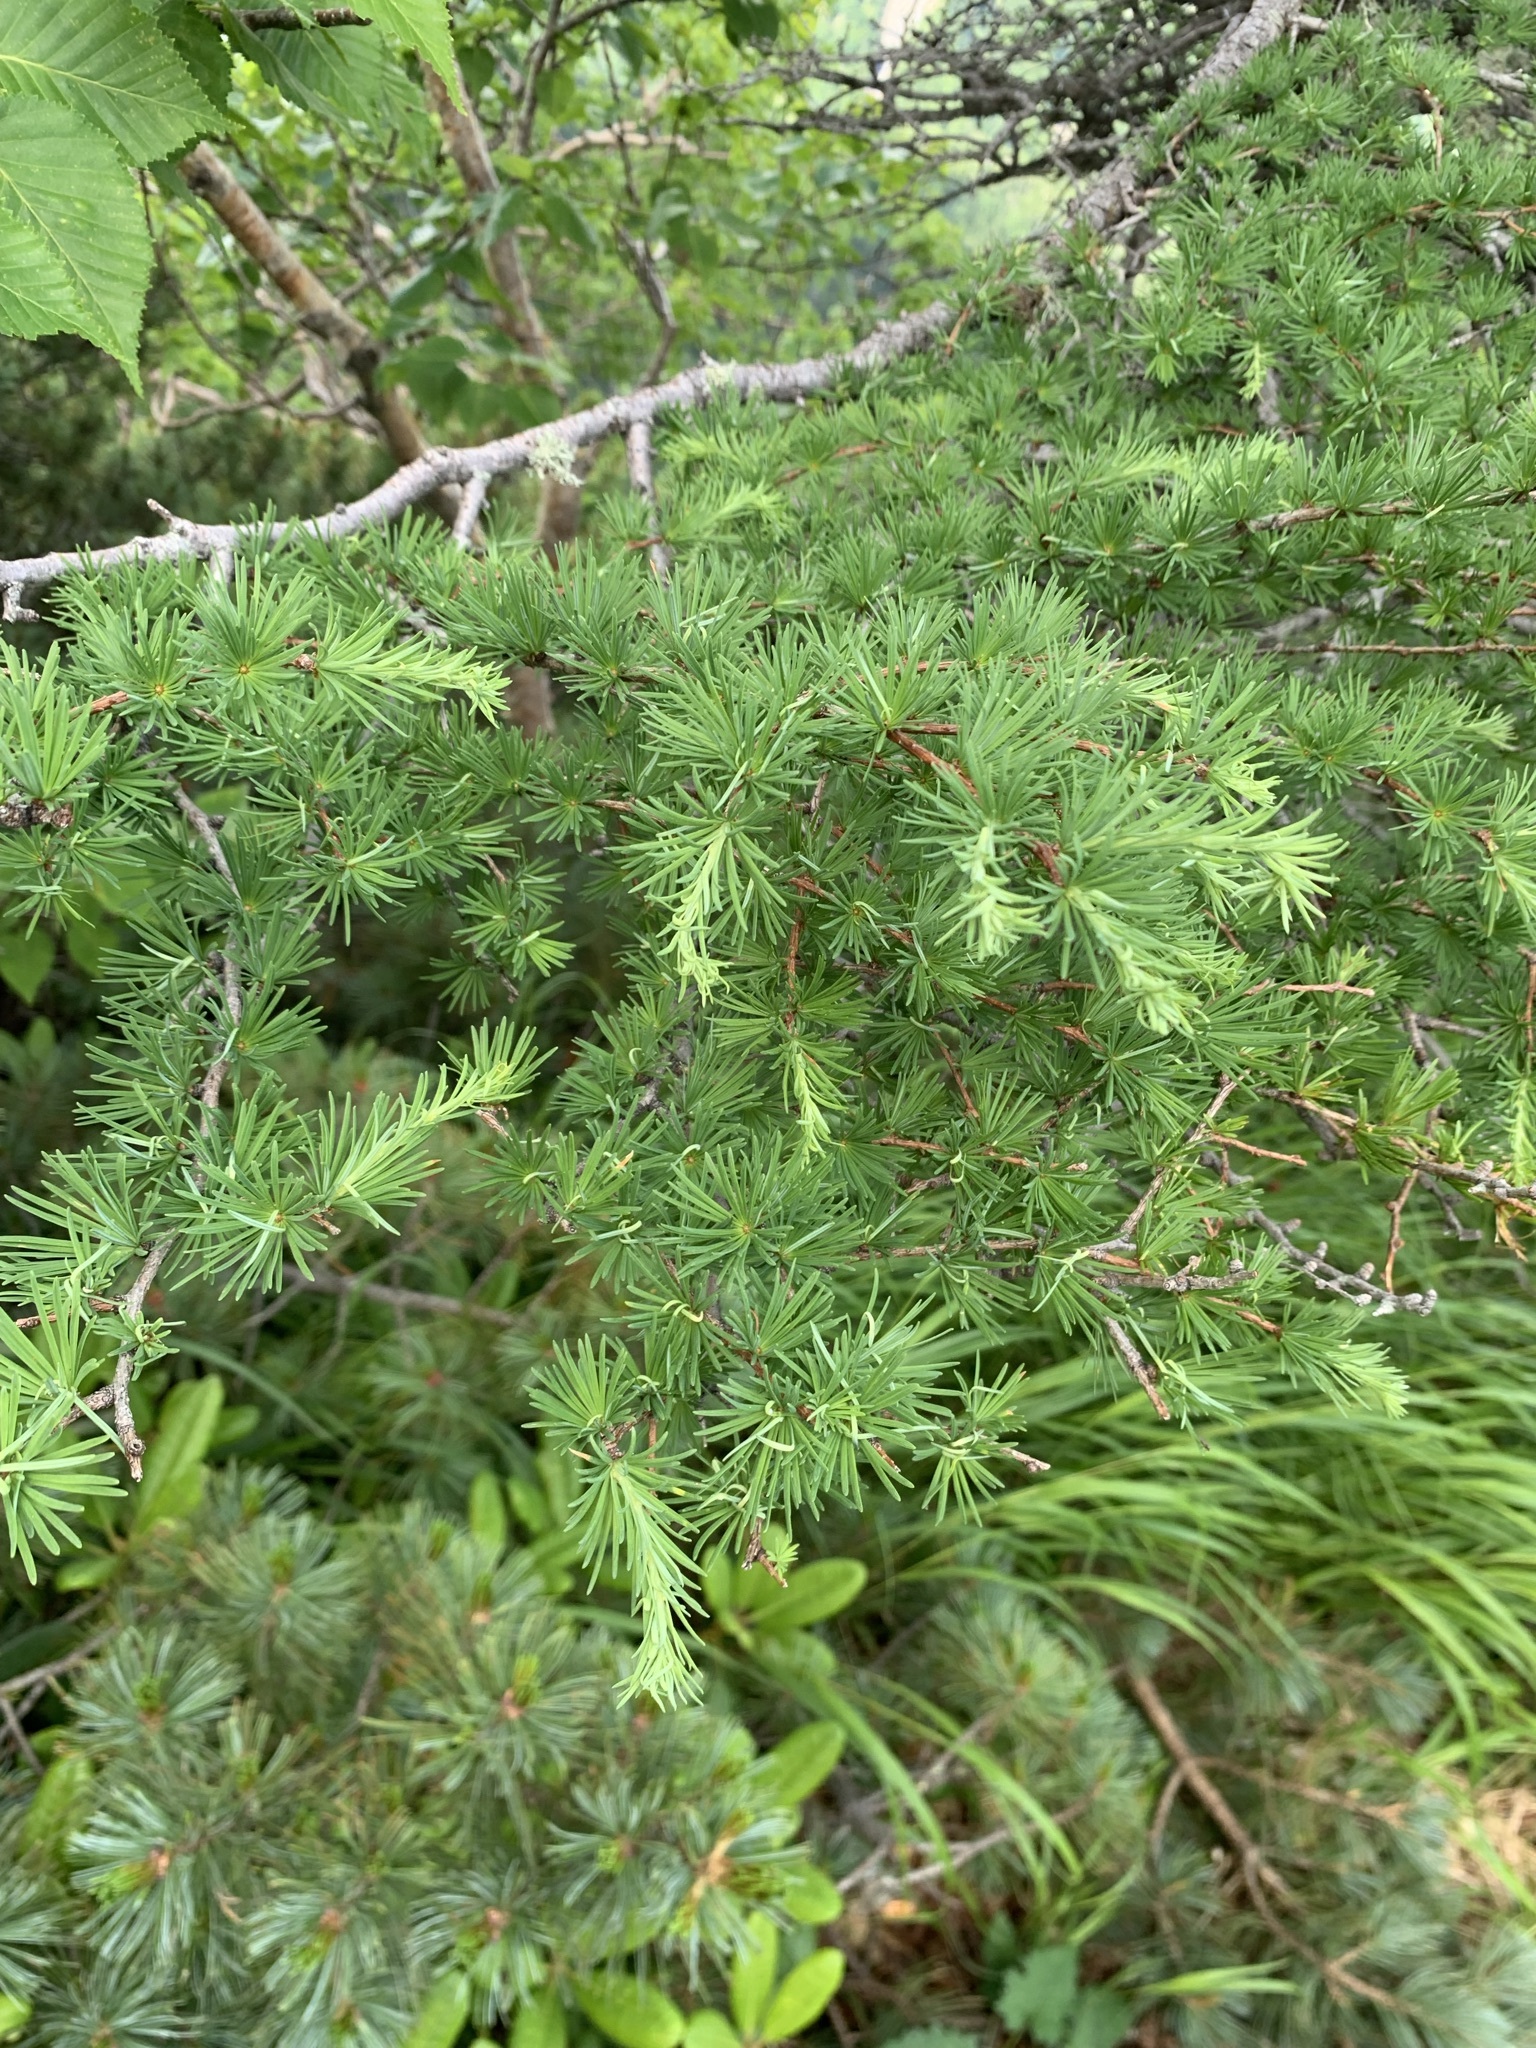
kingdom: Plantae
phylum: Tracheophyta
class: Pinopsida
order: Pinales
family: Pinaceae
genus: Larix
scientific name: Larix kaempferi
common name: Japanese larch
